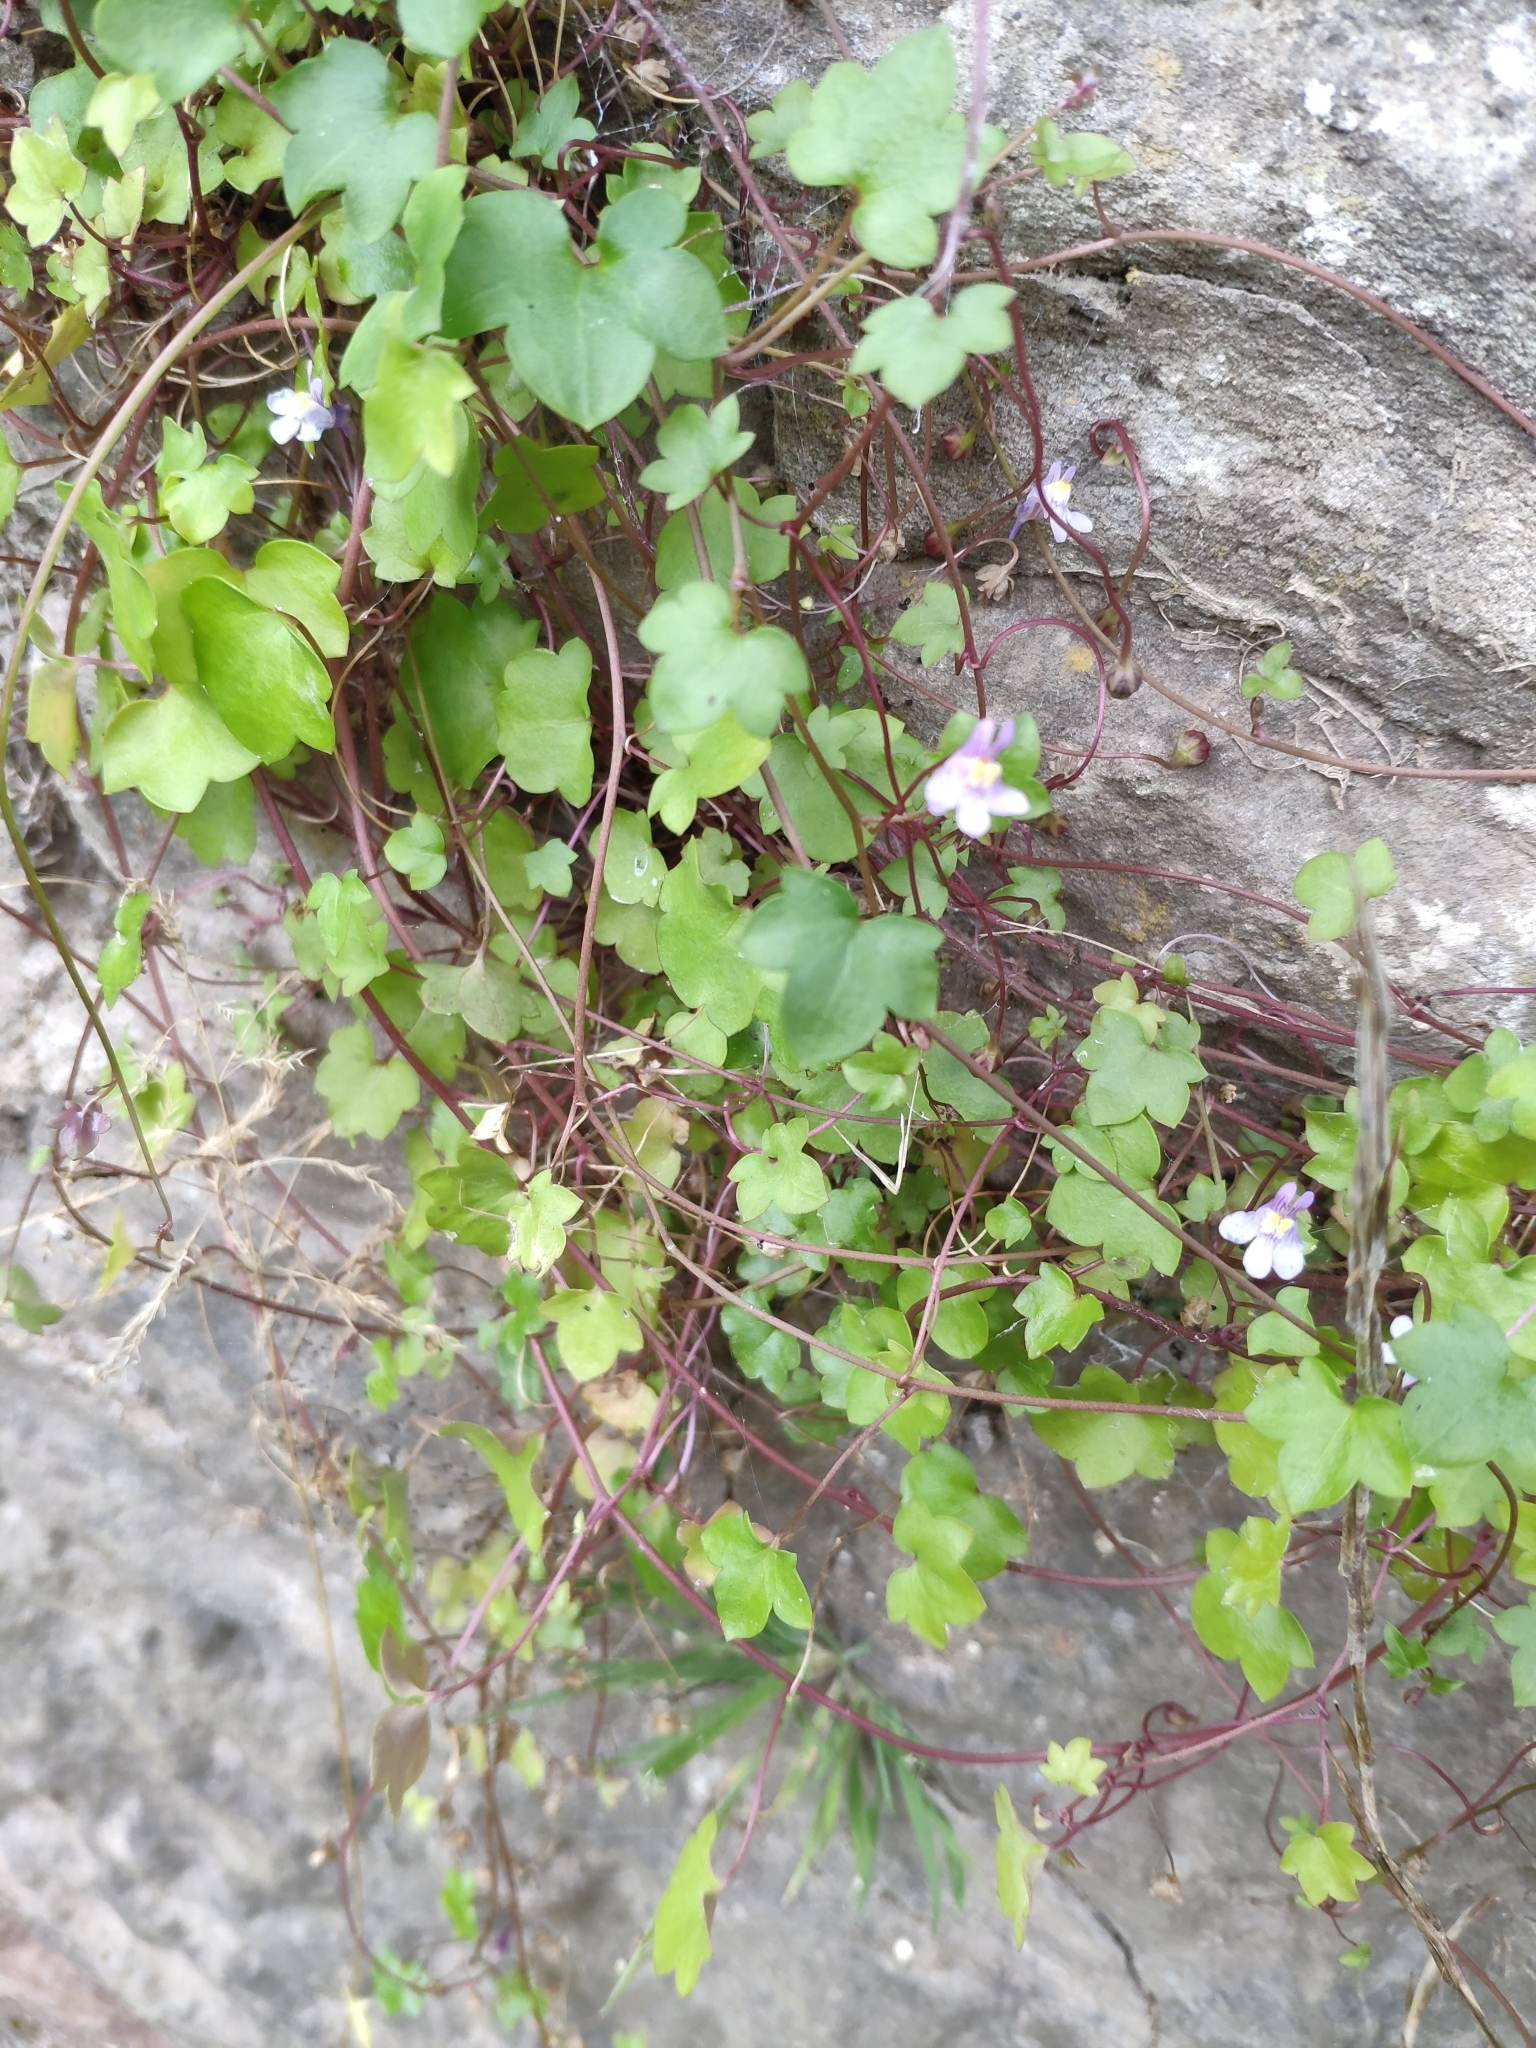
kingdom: Plantae
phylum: Tracheophyta
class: Magnoliopsida
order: Lamiales
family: Plantaginaceae
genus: Cymbalaria
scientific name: Cymbalaria muralis
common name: Ivy-leaved toadflax
